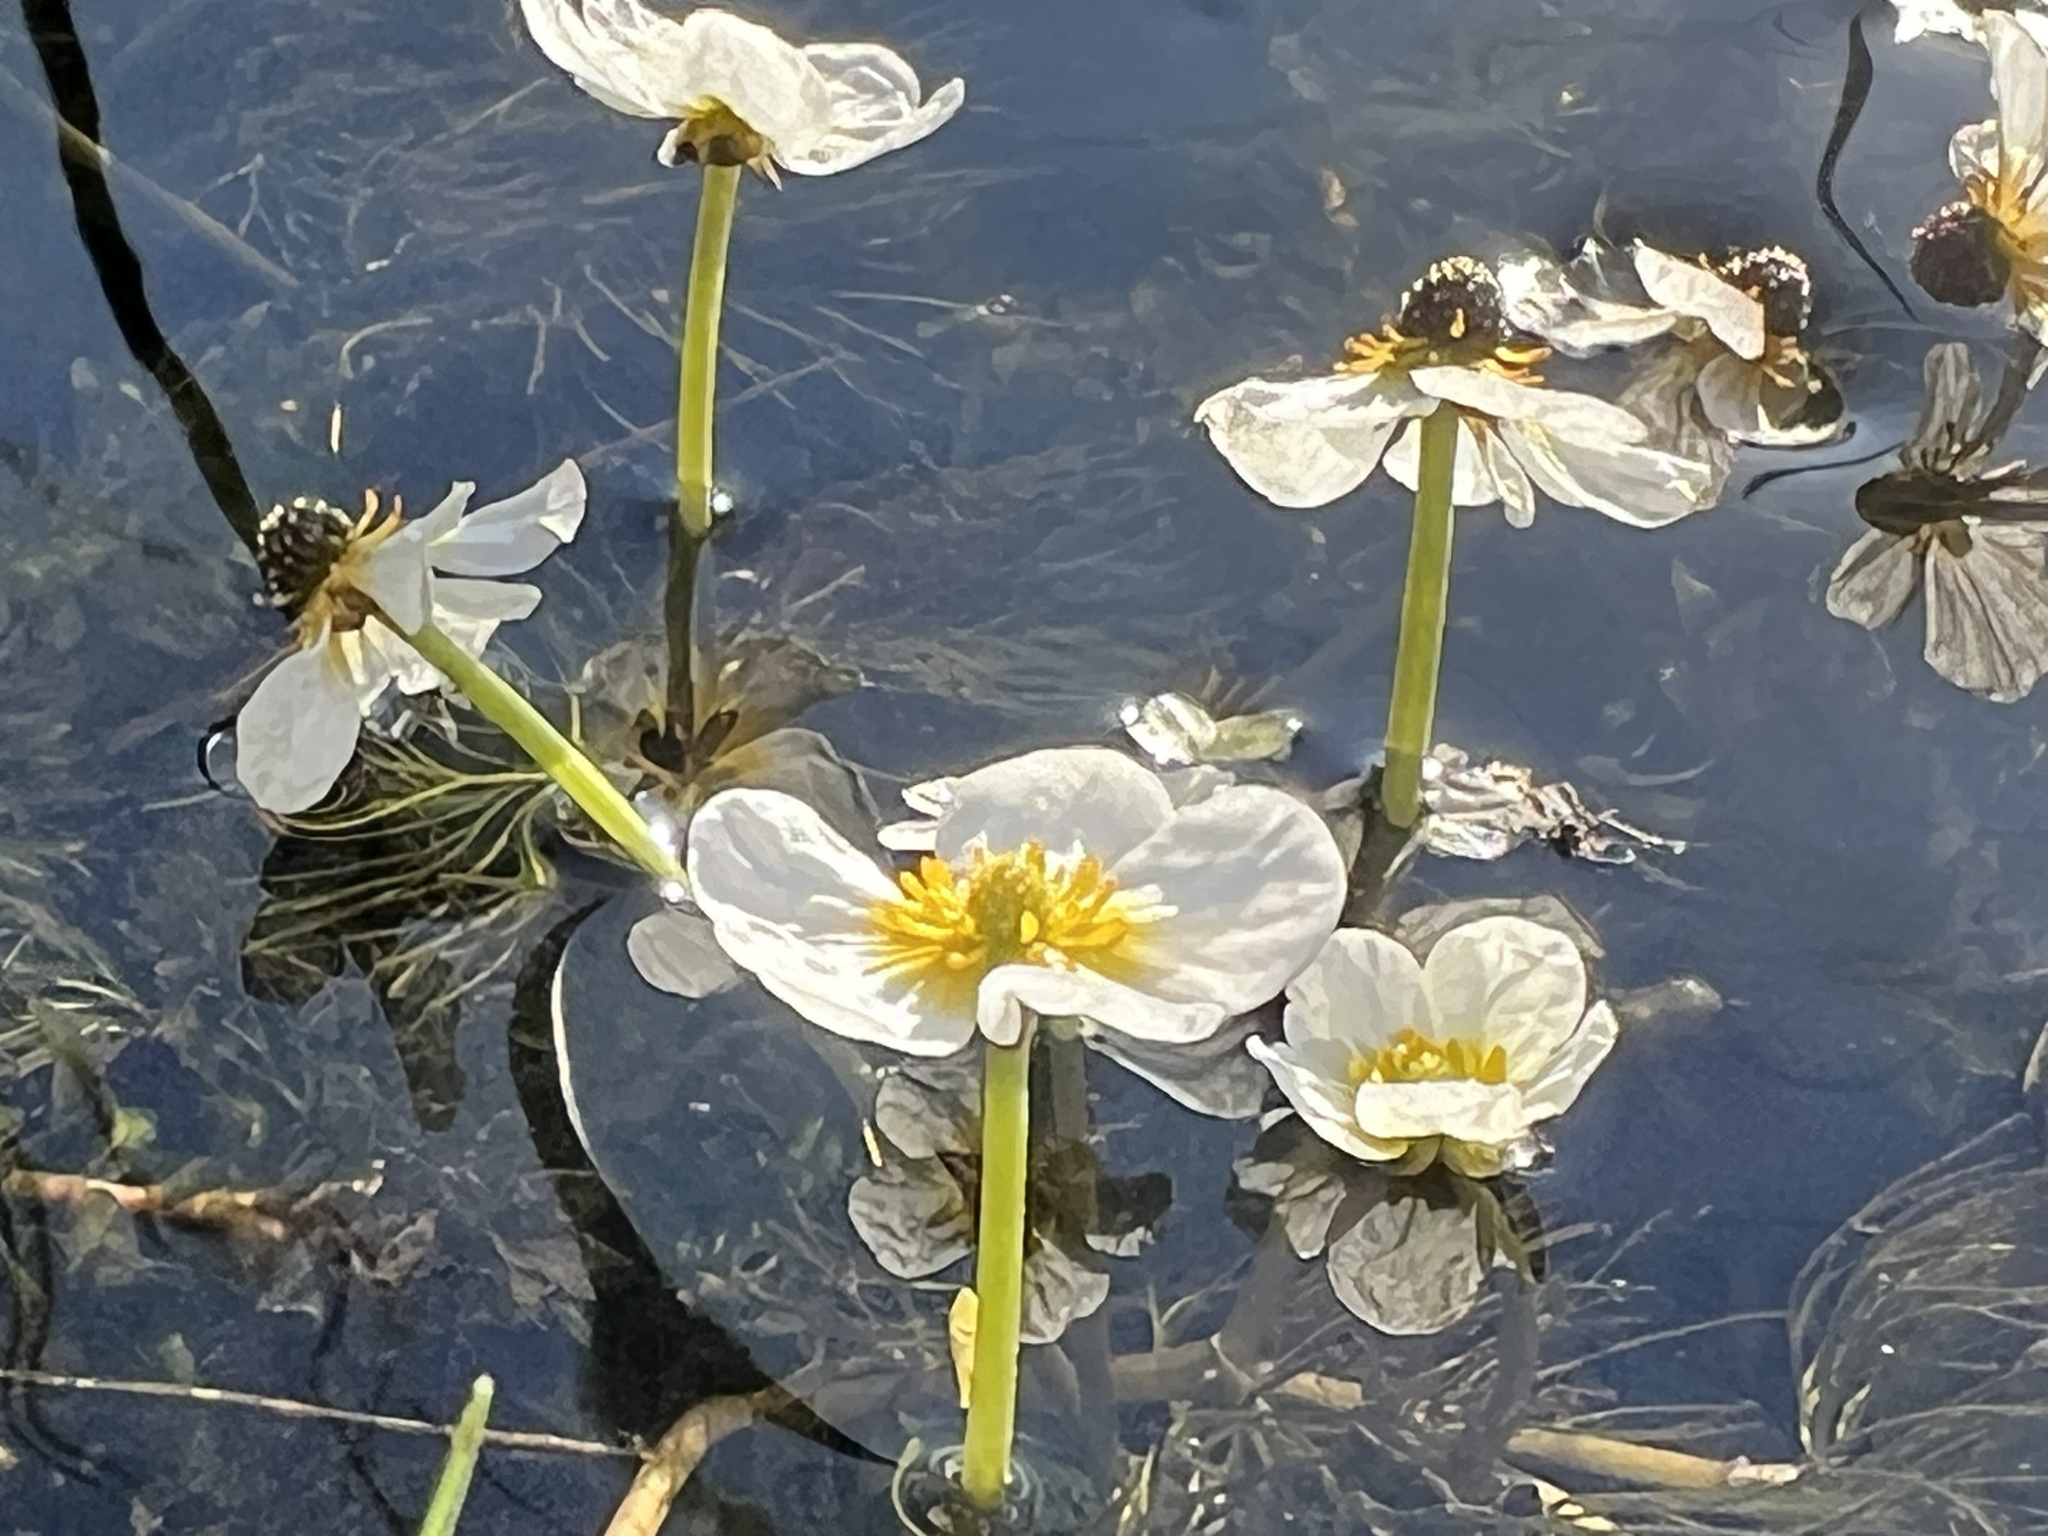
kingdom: Plantae
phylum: Tracheophyta
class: Magnoliopsida
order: Ranunculales
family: Ranunculaceae
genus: Ranunculus
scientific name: Ranunculus aquatilis
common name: Common water-crowfoot
